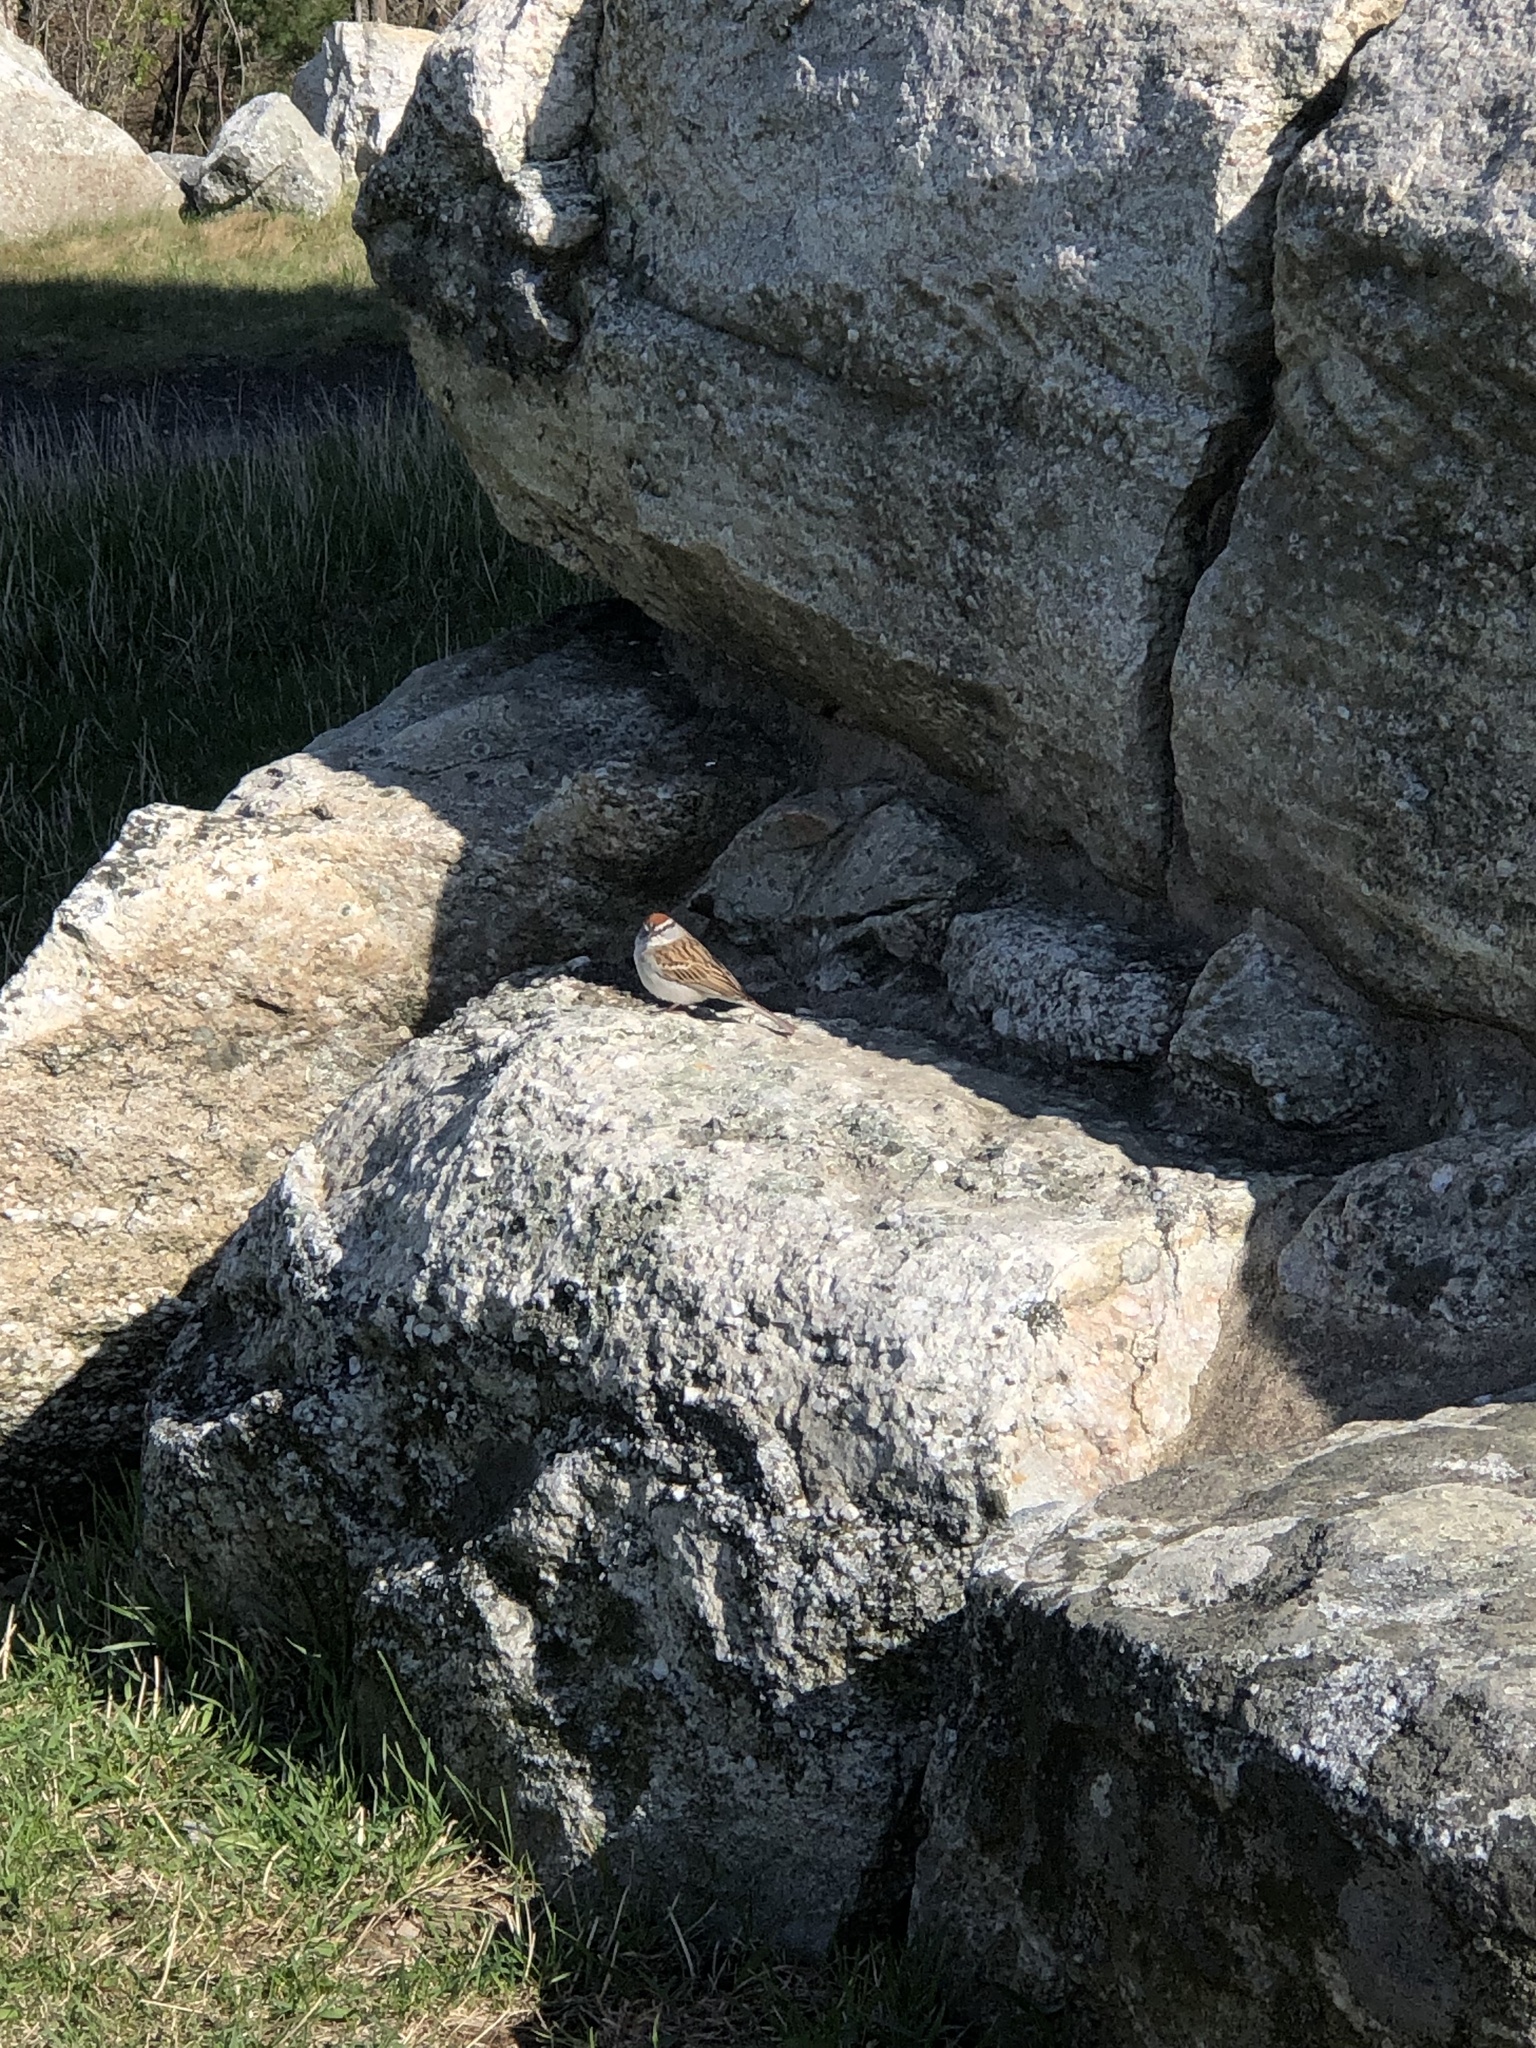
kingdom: Animalia
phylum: Chordata
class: Aves
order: Passeriformes
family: Passerellidae
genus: Spizella
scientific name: Spizella passerina
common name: Chipping sparrow
